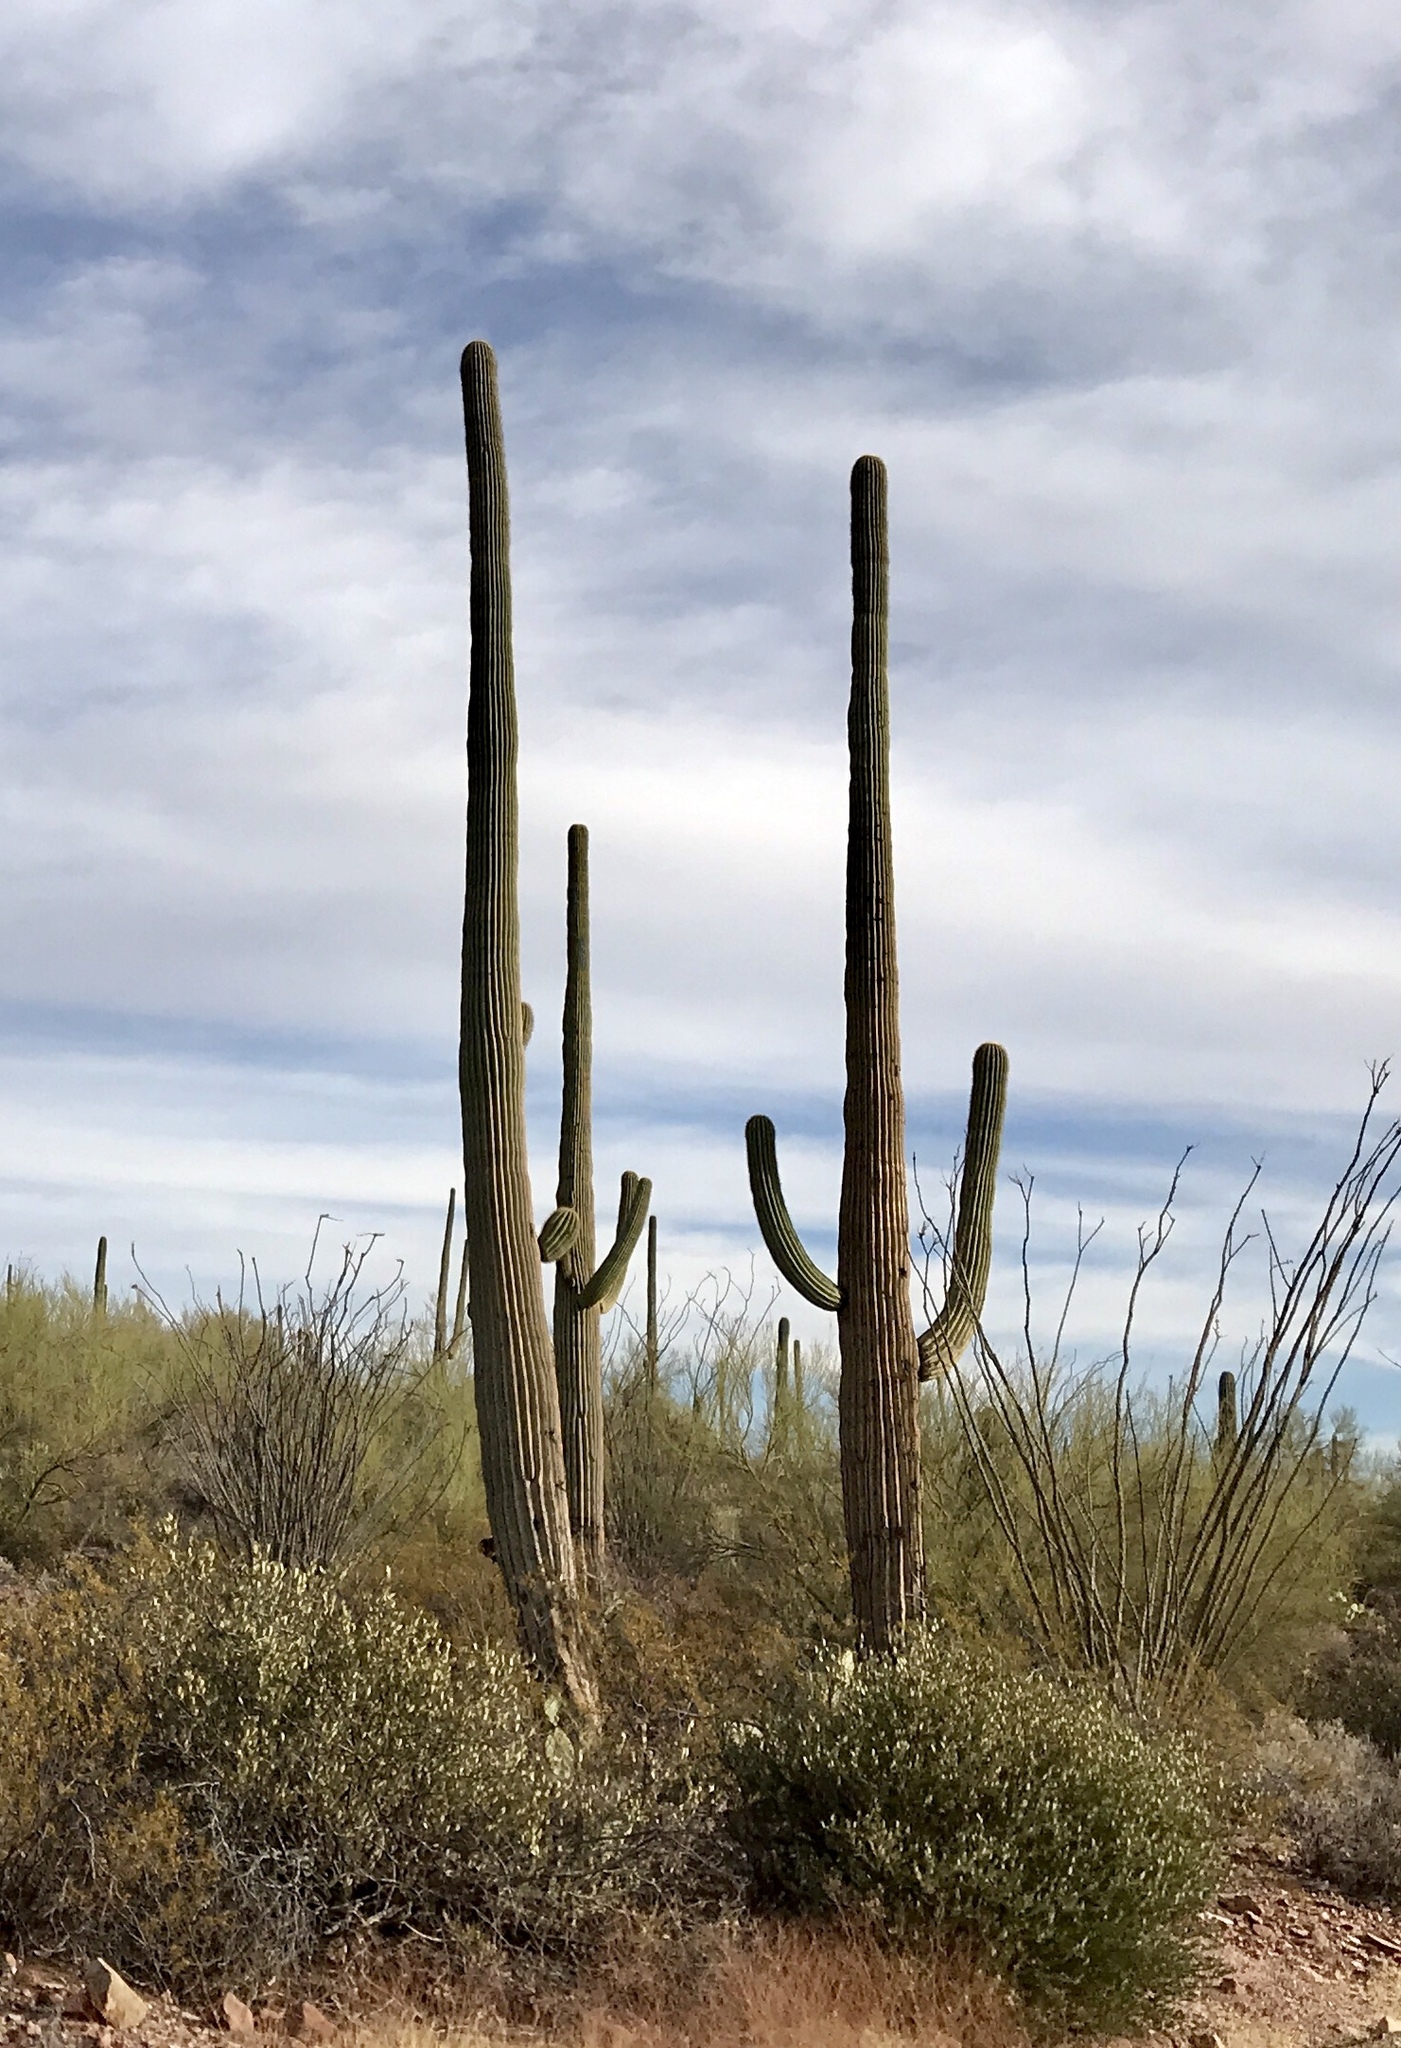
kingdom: Plantae
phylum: Tracheophyta
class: Magnoliopsida
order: Caryophyllales
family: Cactaceae
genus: Carnegiea
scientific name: Carnegiea gigantea
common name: Saguaro
